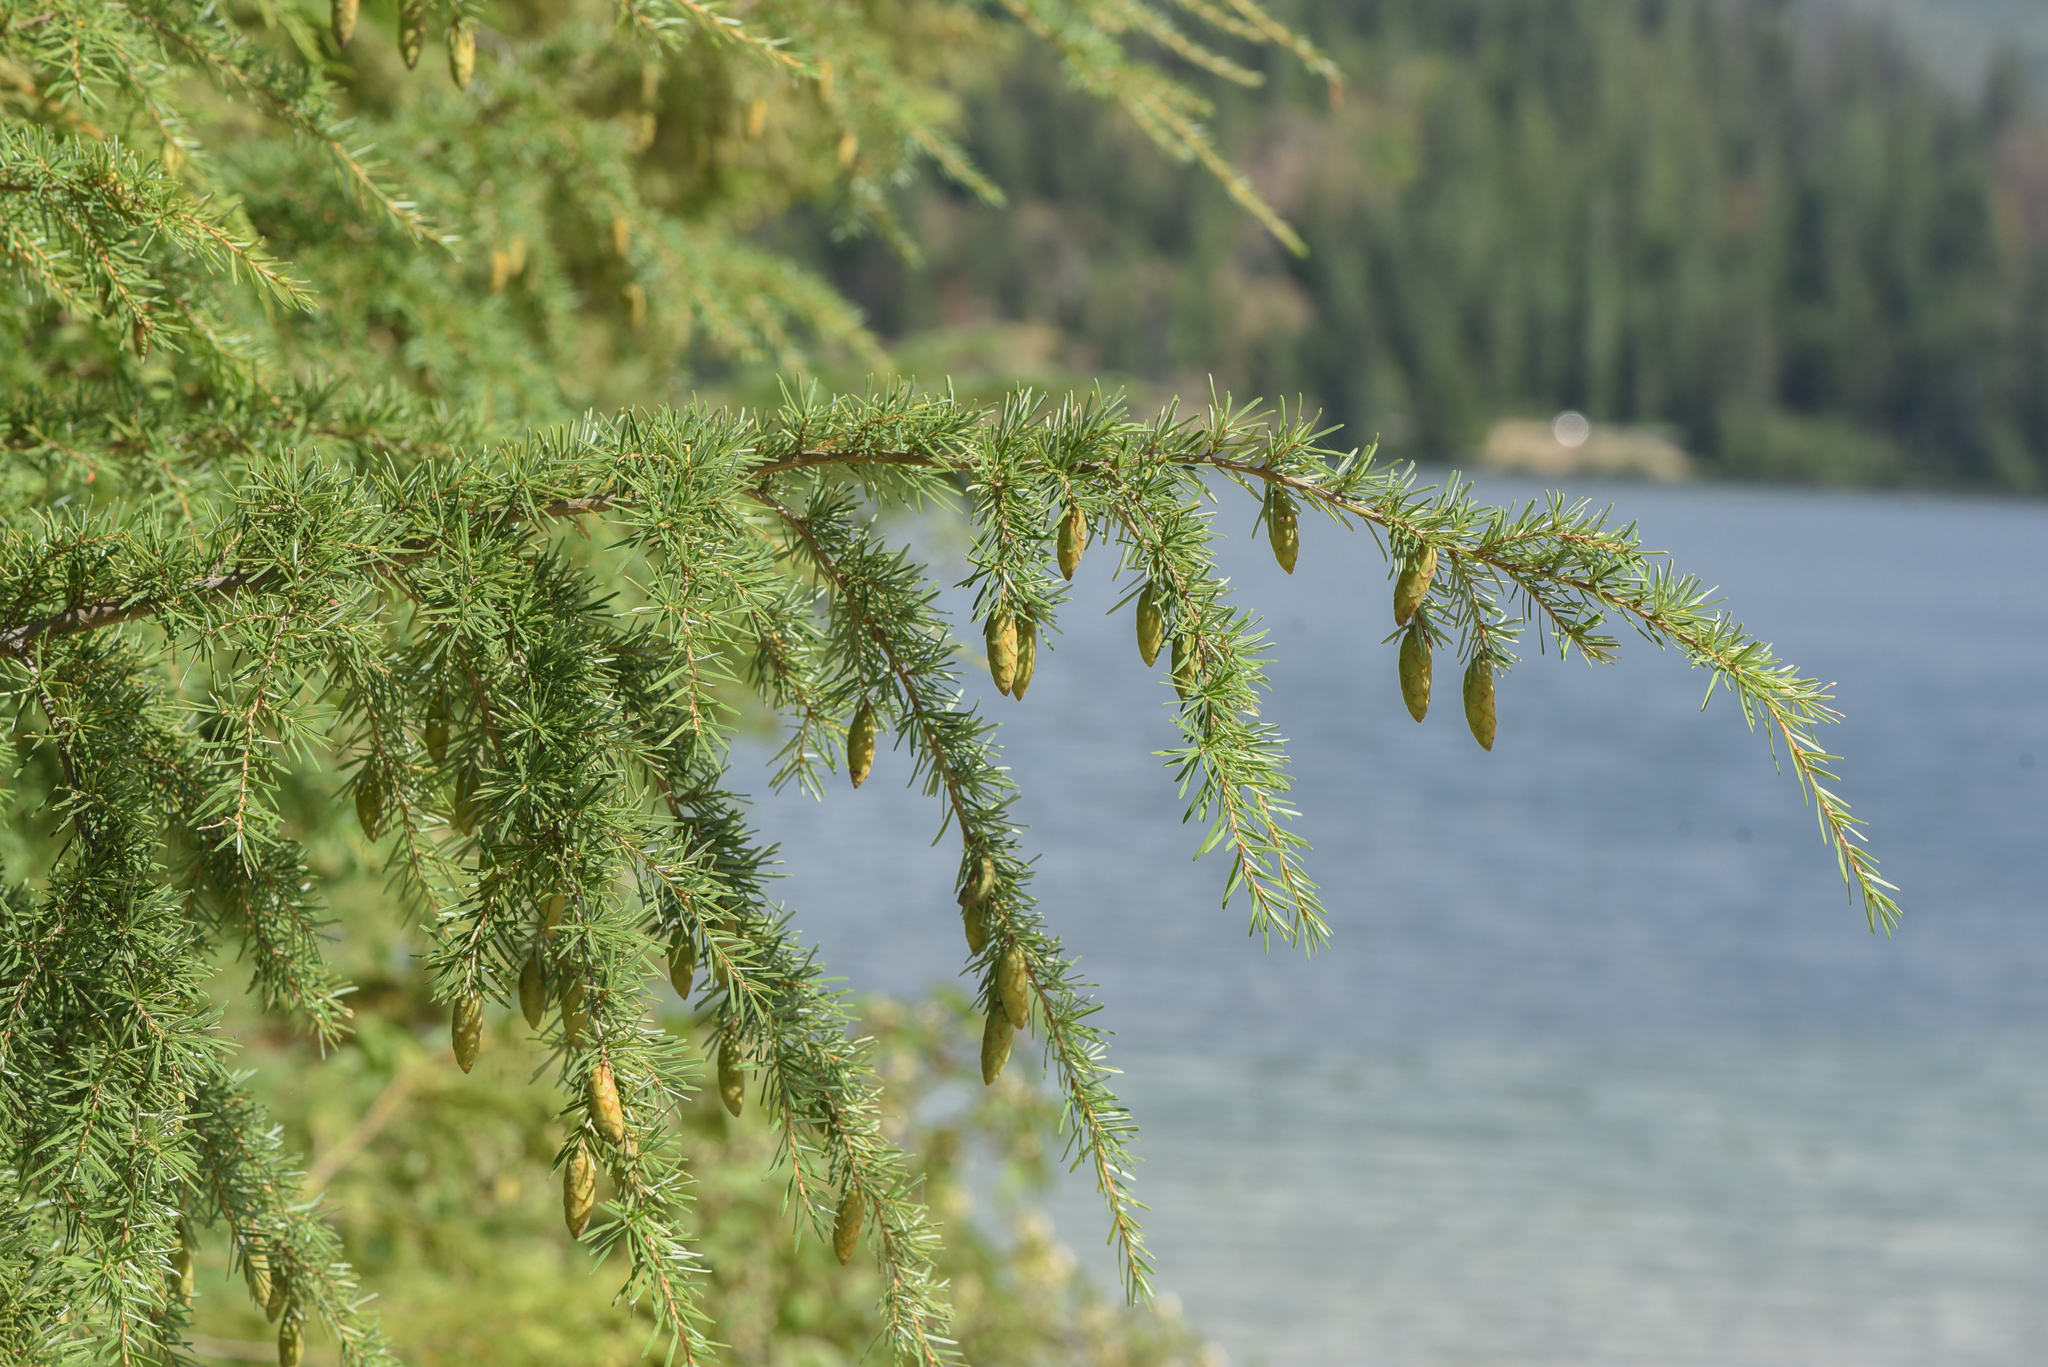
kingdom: Plantae
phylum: Tracheophyta
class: Pinopsida
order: Pinales
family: Pinaceae
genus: Tsuga
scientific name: Tsuga heterophylla
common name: Western hemlock
